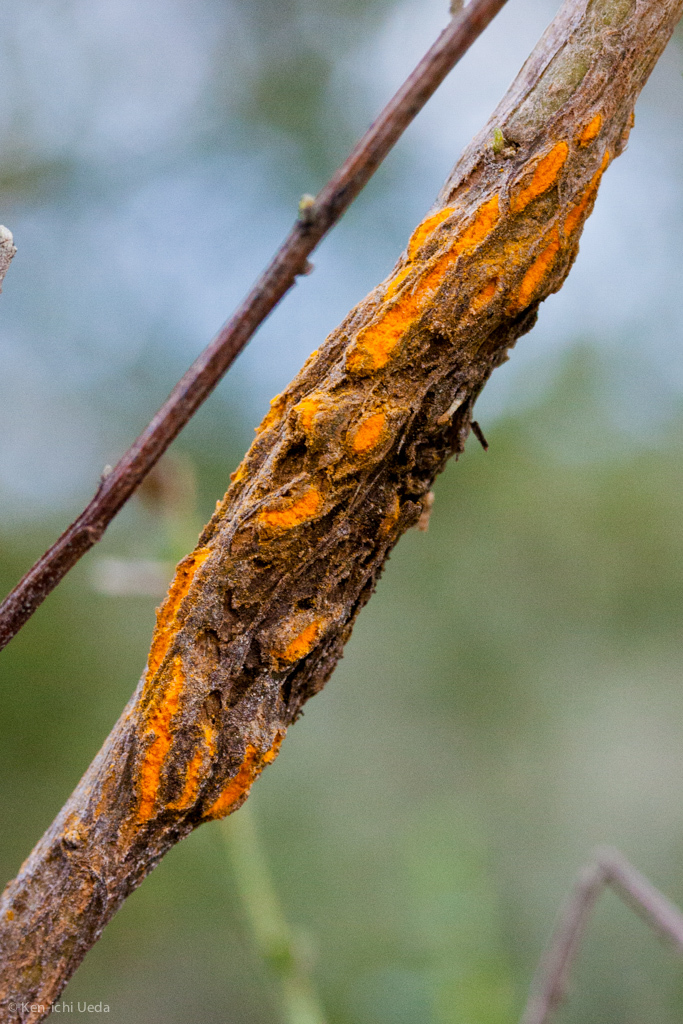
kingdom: Fungi
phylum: Basidiomycota
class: Pucciniomycetes
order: Pucciniales
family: Pucciniaceae
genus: Eriosporangium
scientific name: Eriosporangium evadens
